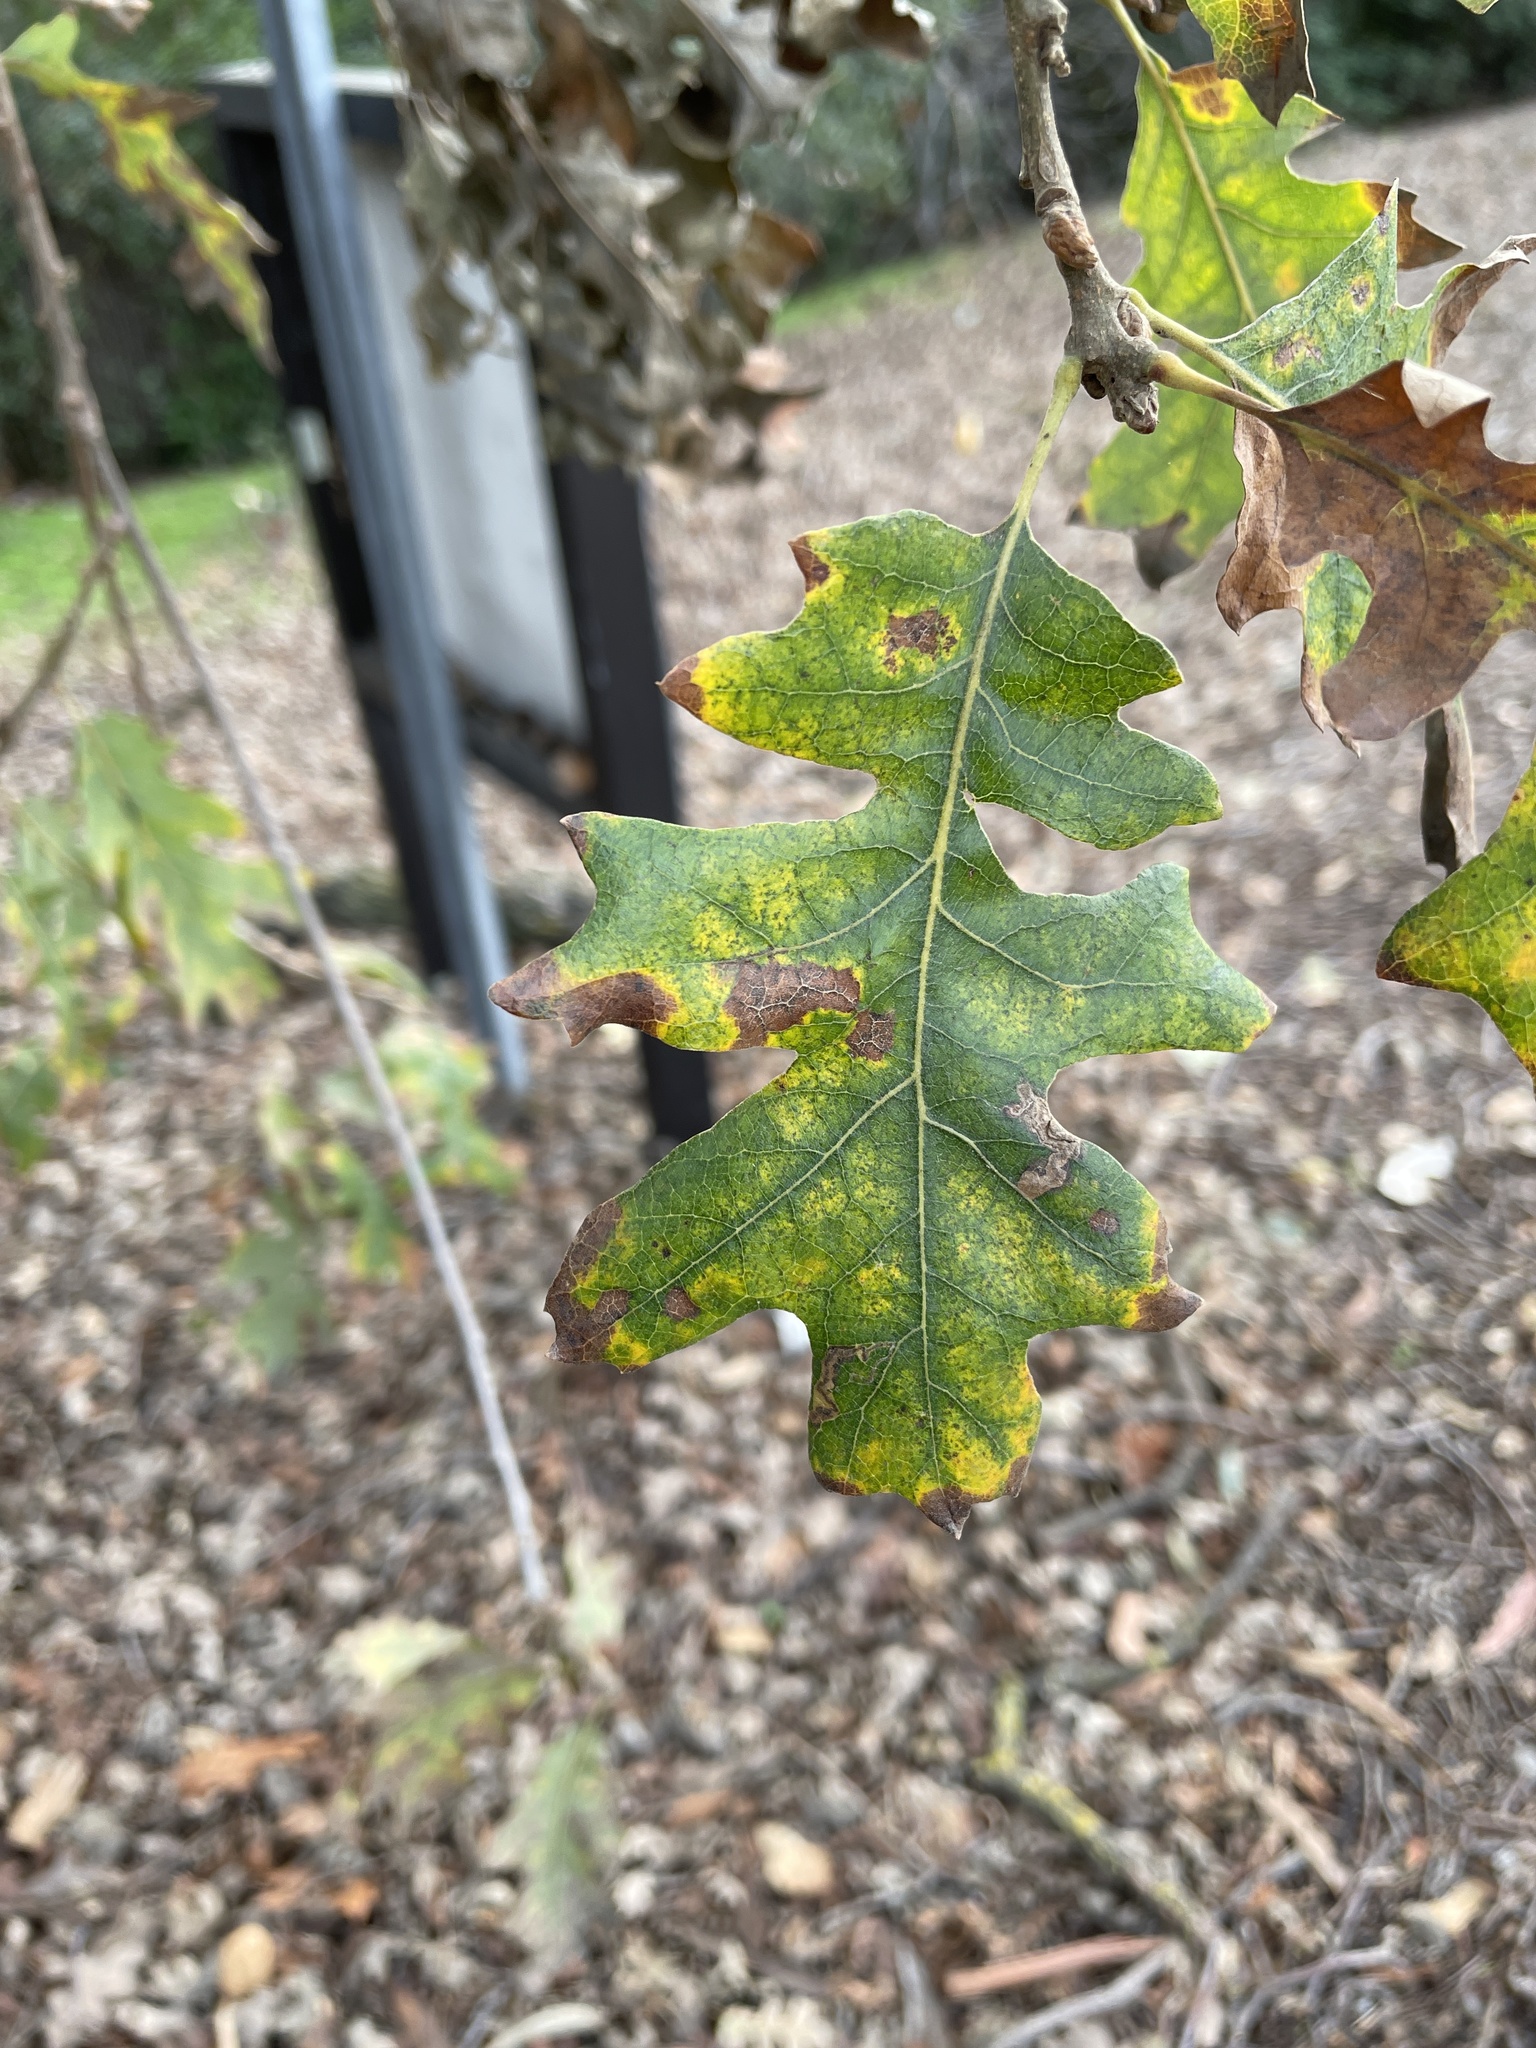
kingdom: Plantae
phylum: Tracheophyta
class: Magnoliopsida
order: Fagales
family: Fagaceae
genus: Quercus
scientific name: Quercus lobata
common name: Valley oak
